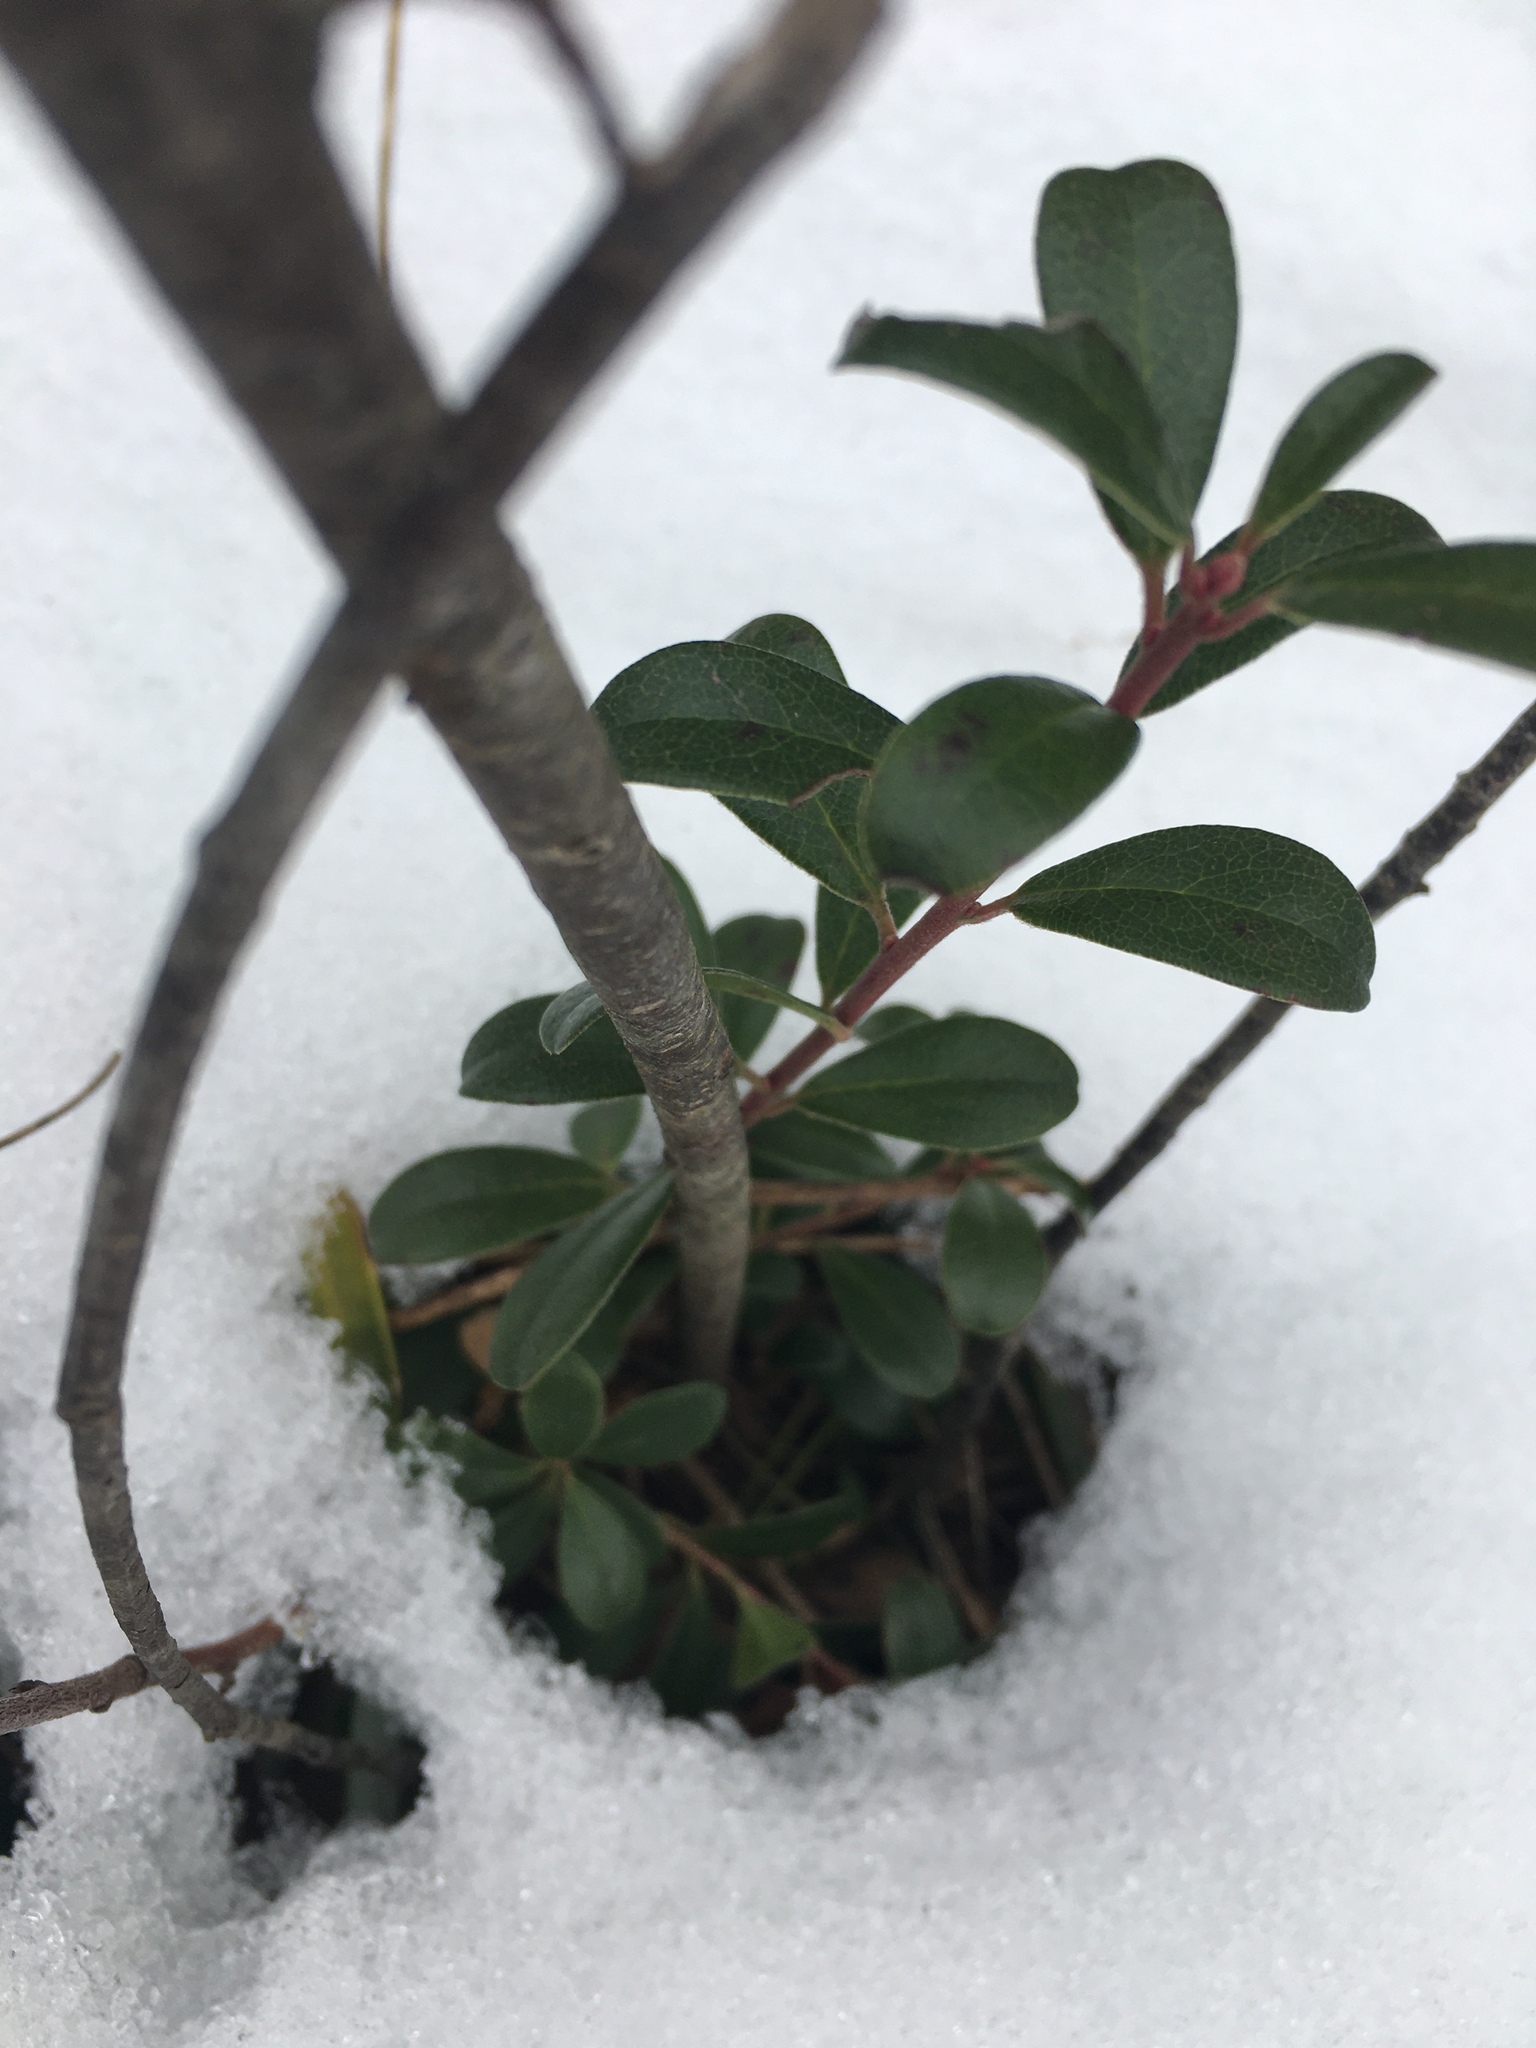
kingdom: Plantae
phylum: Tracheophyta
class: Magnoliopsida
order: Ericales
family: Ericaceae
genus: Arctostaphylos
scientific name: Arctostaphylos uva-ursi
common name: Bearberry
